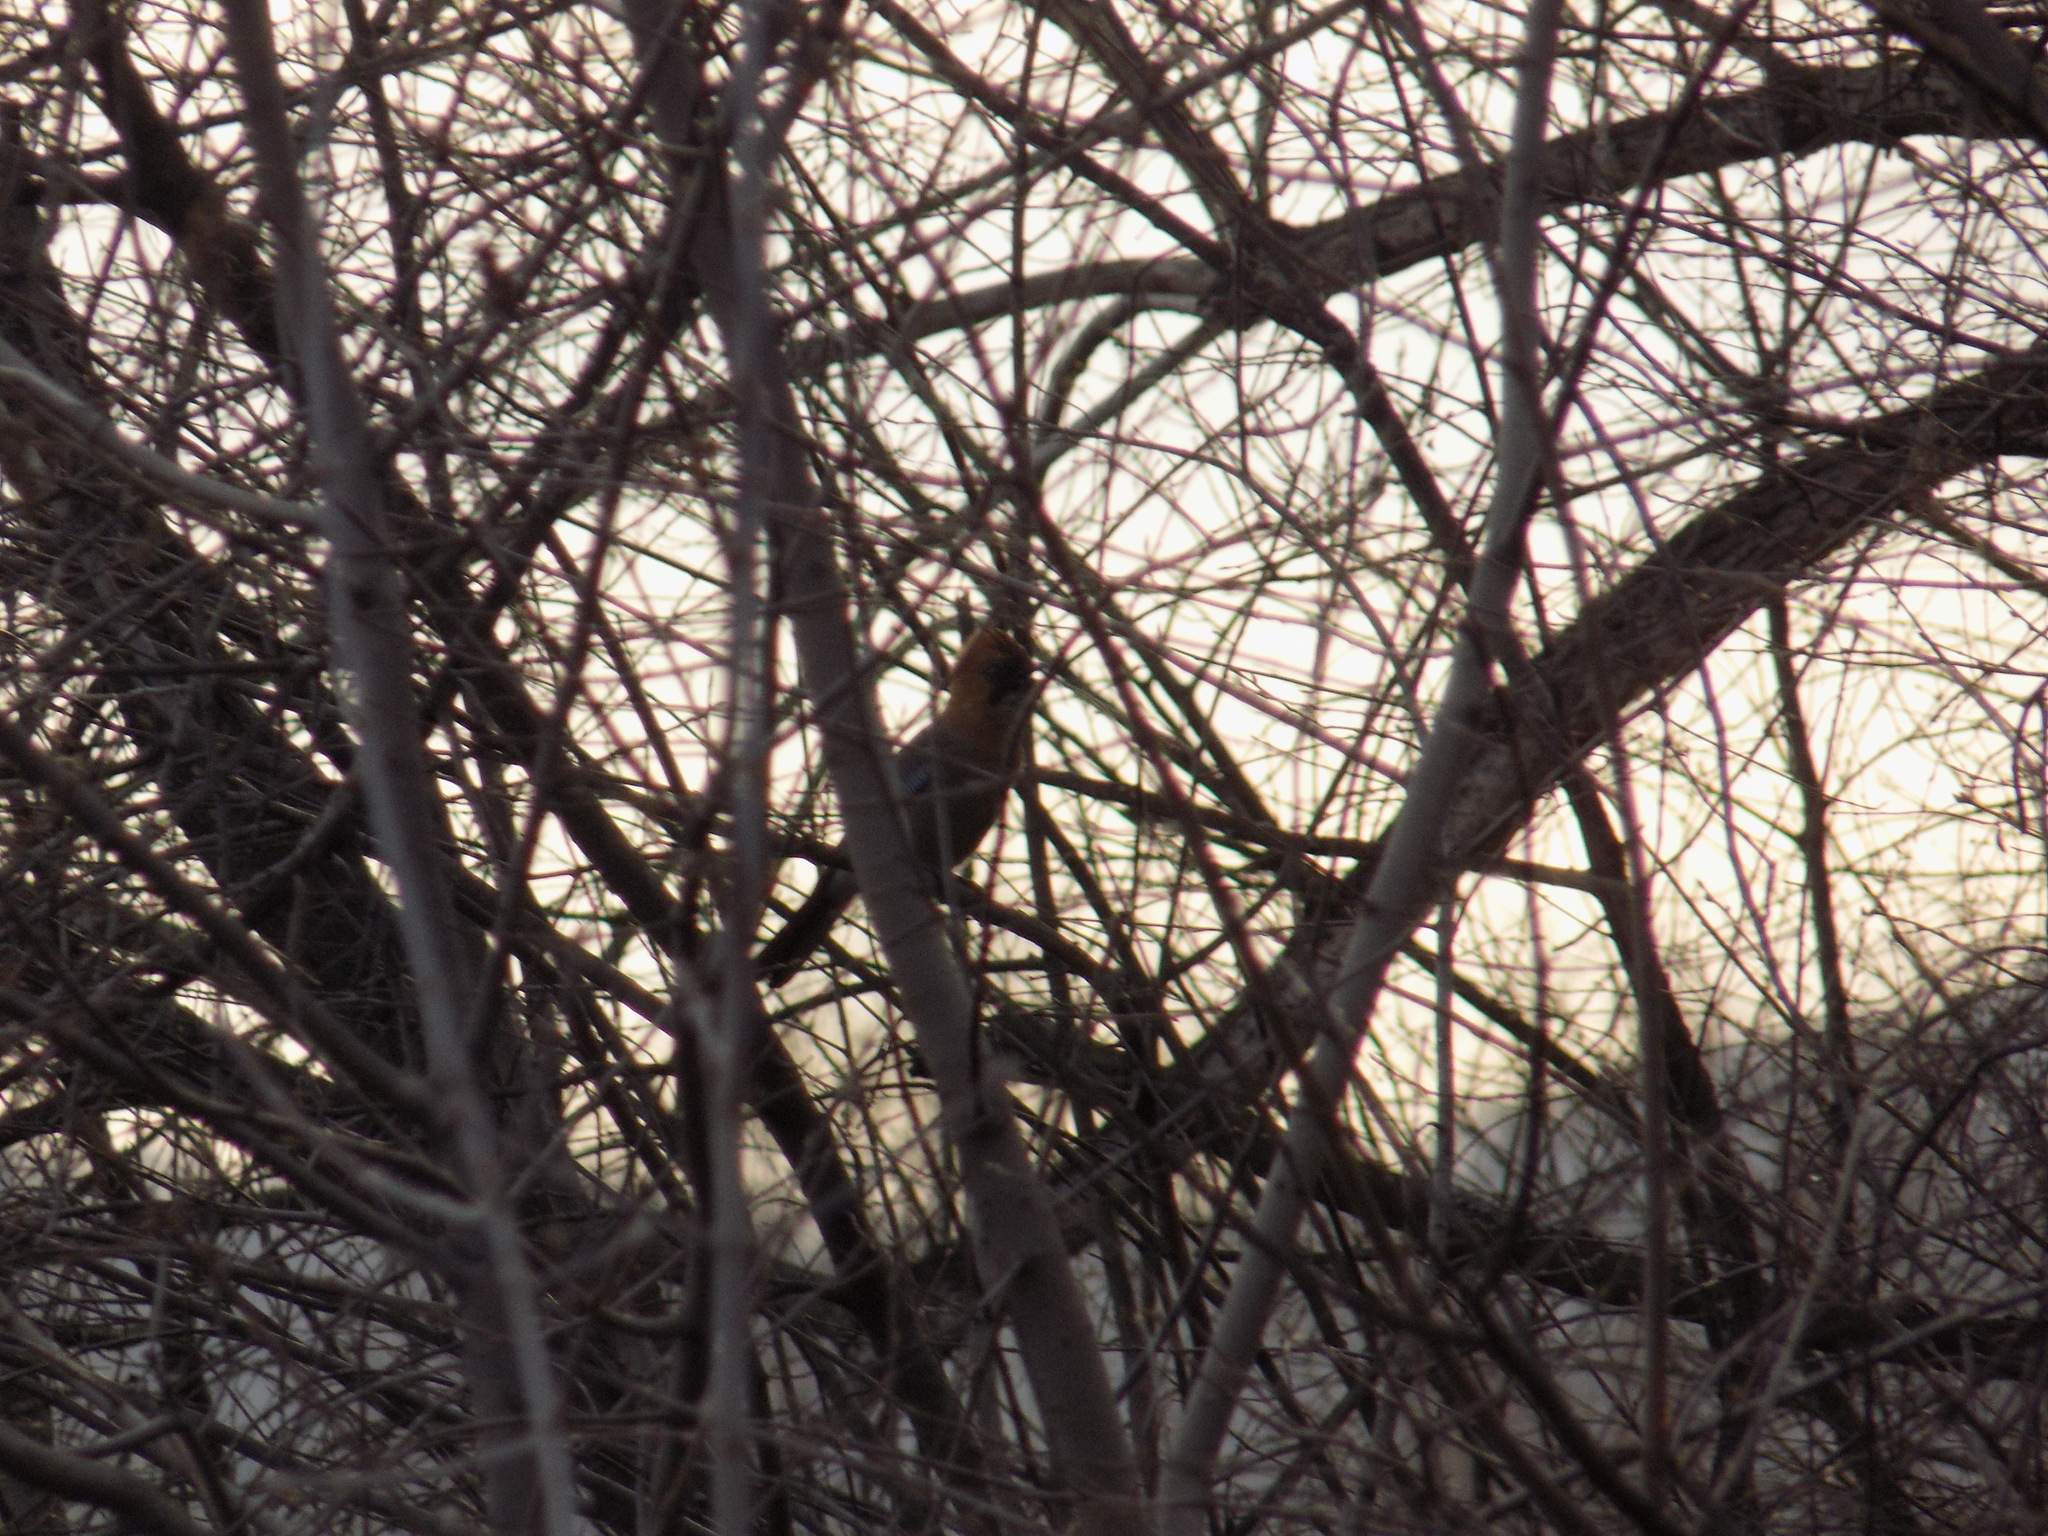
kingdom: Animalia
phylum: Chordata
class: Aves
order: Passeriformes
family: Corvidae
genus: Garrulus
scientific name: Garrulus glandarius
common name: Eurasian jay
